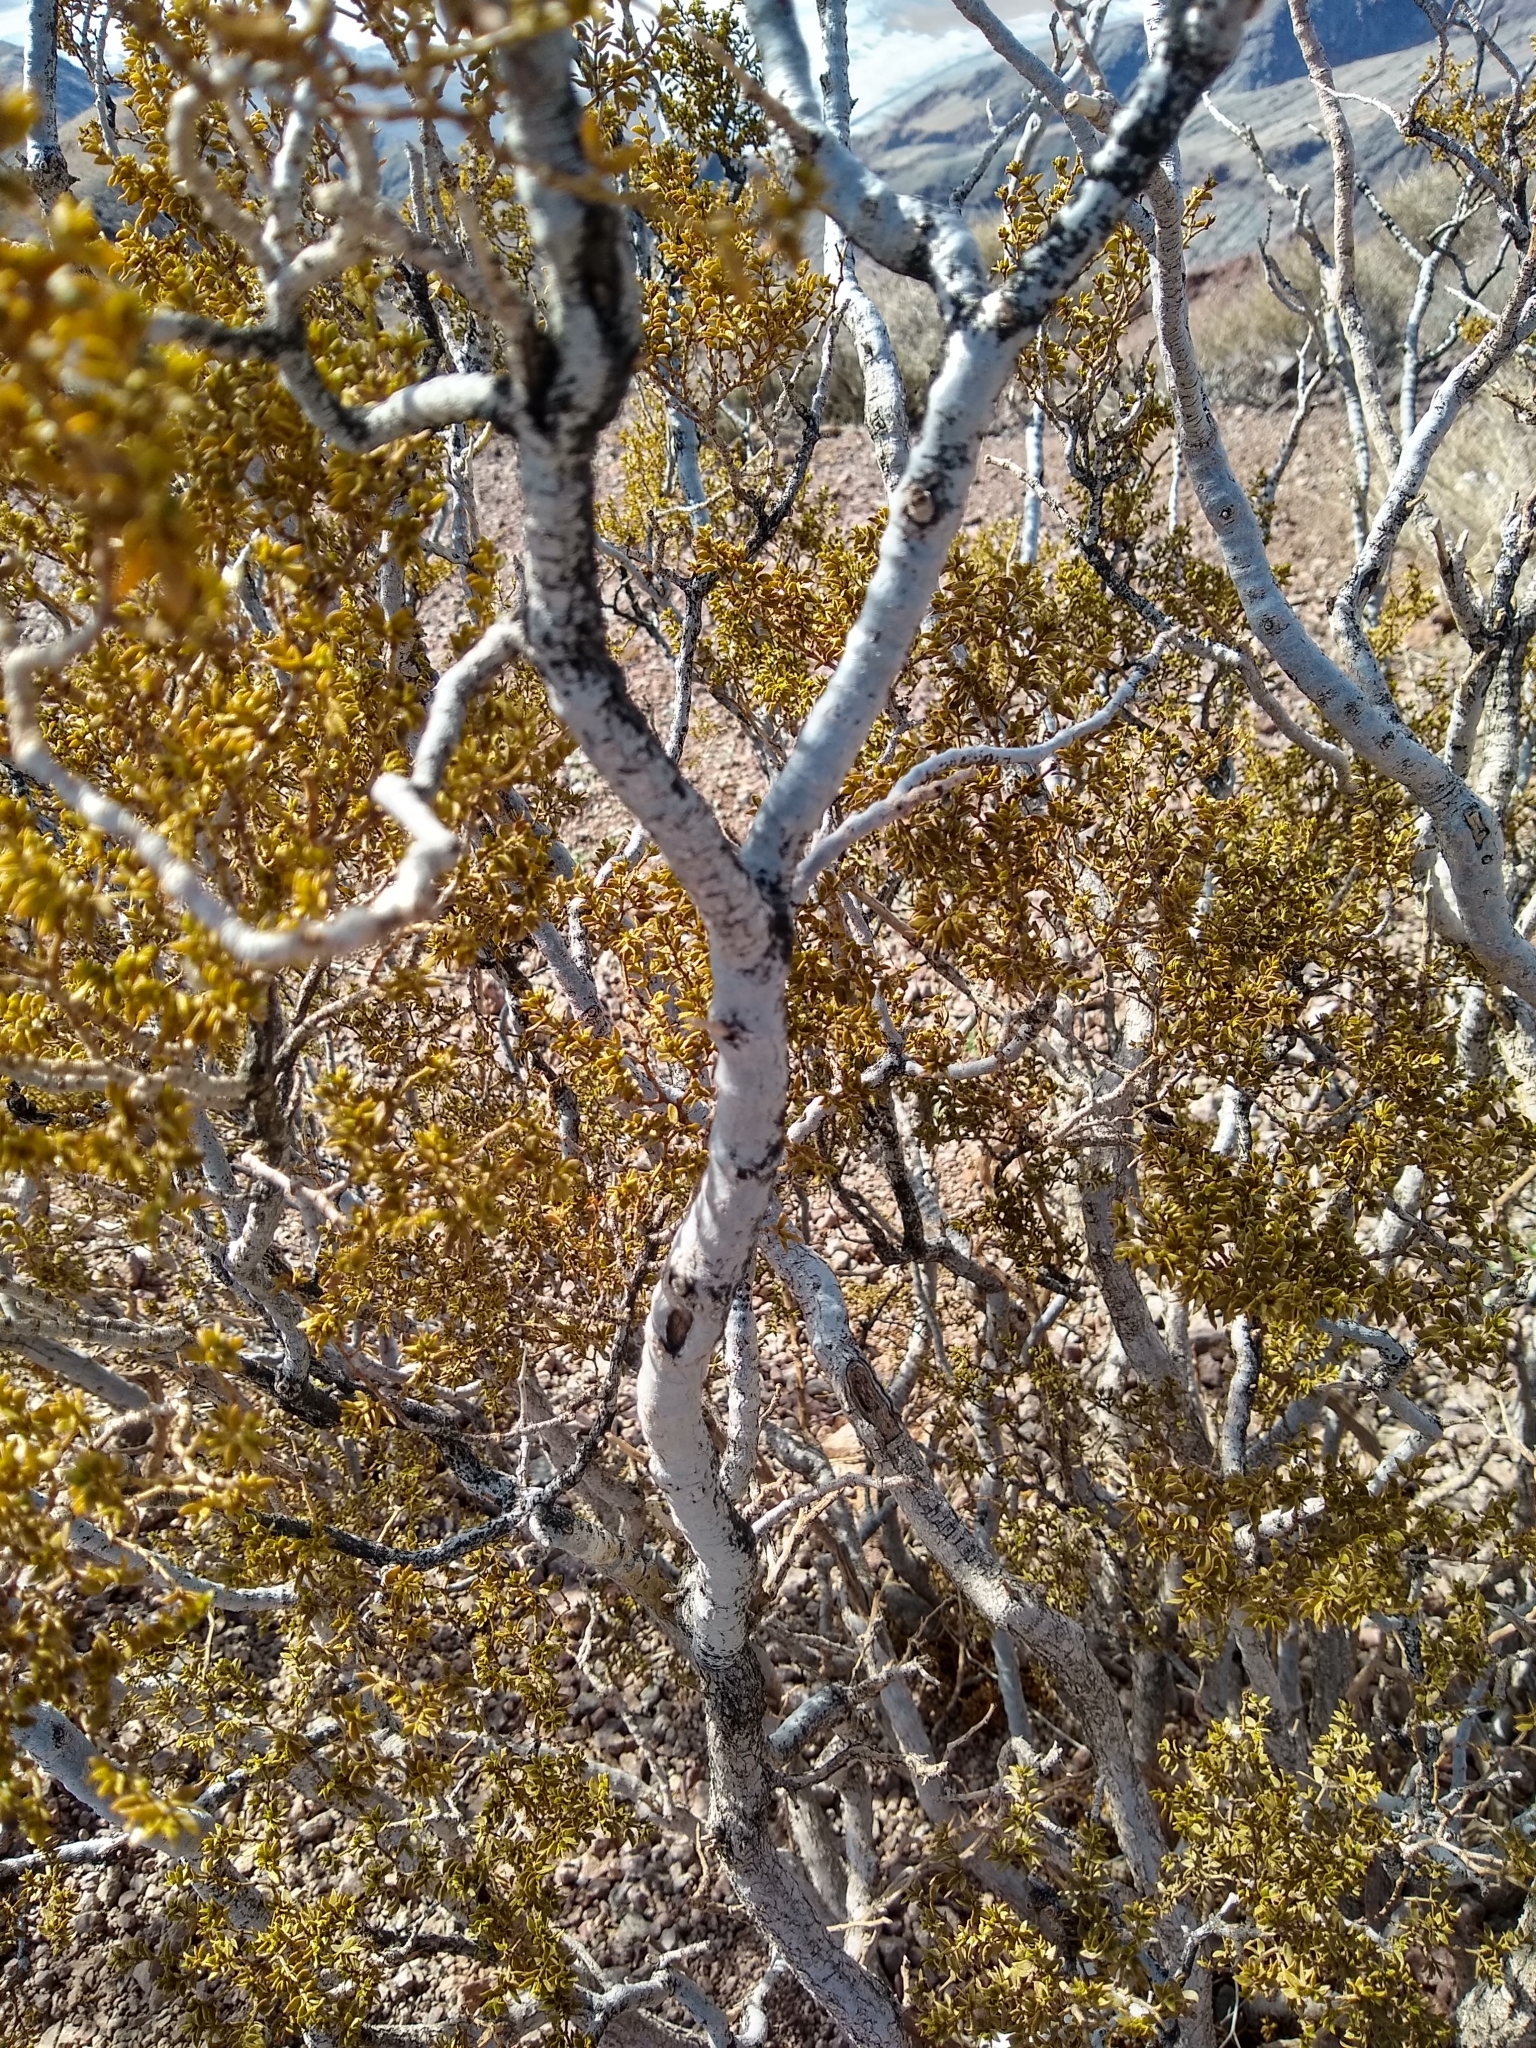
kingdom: Plantae
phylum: Tracheophyta
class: Magnoliopsida
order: Zygophyllales
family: Zygophyllaceae
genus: Larrea
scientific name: Larrea tridentata
